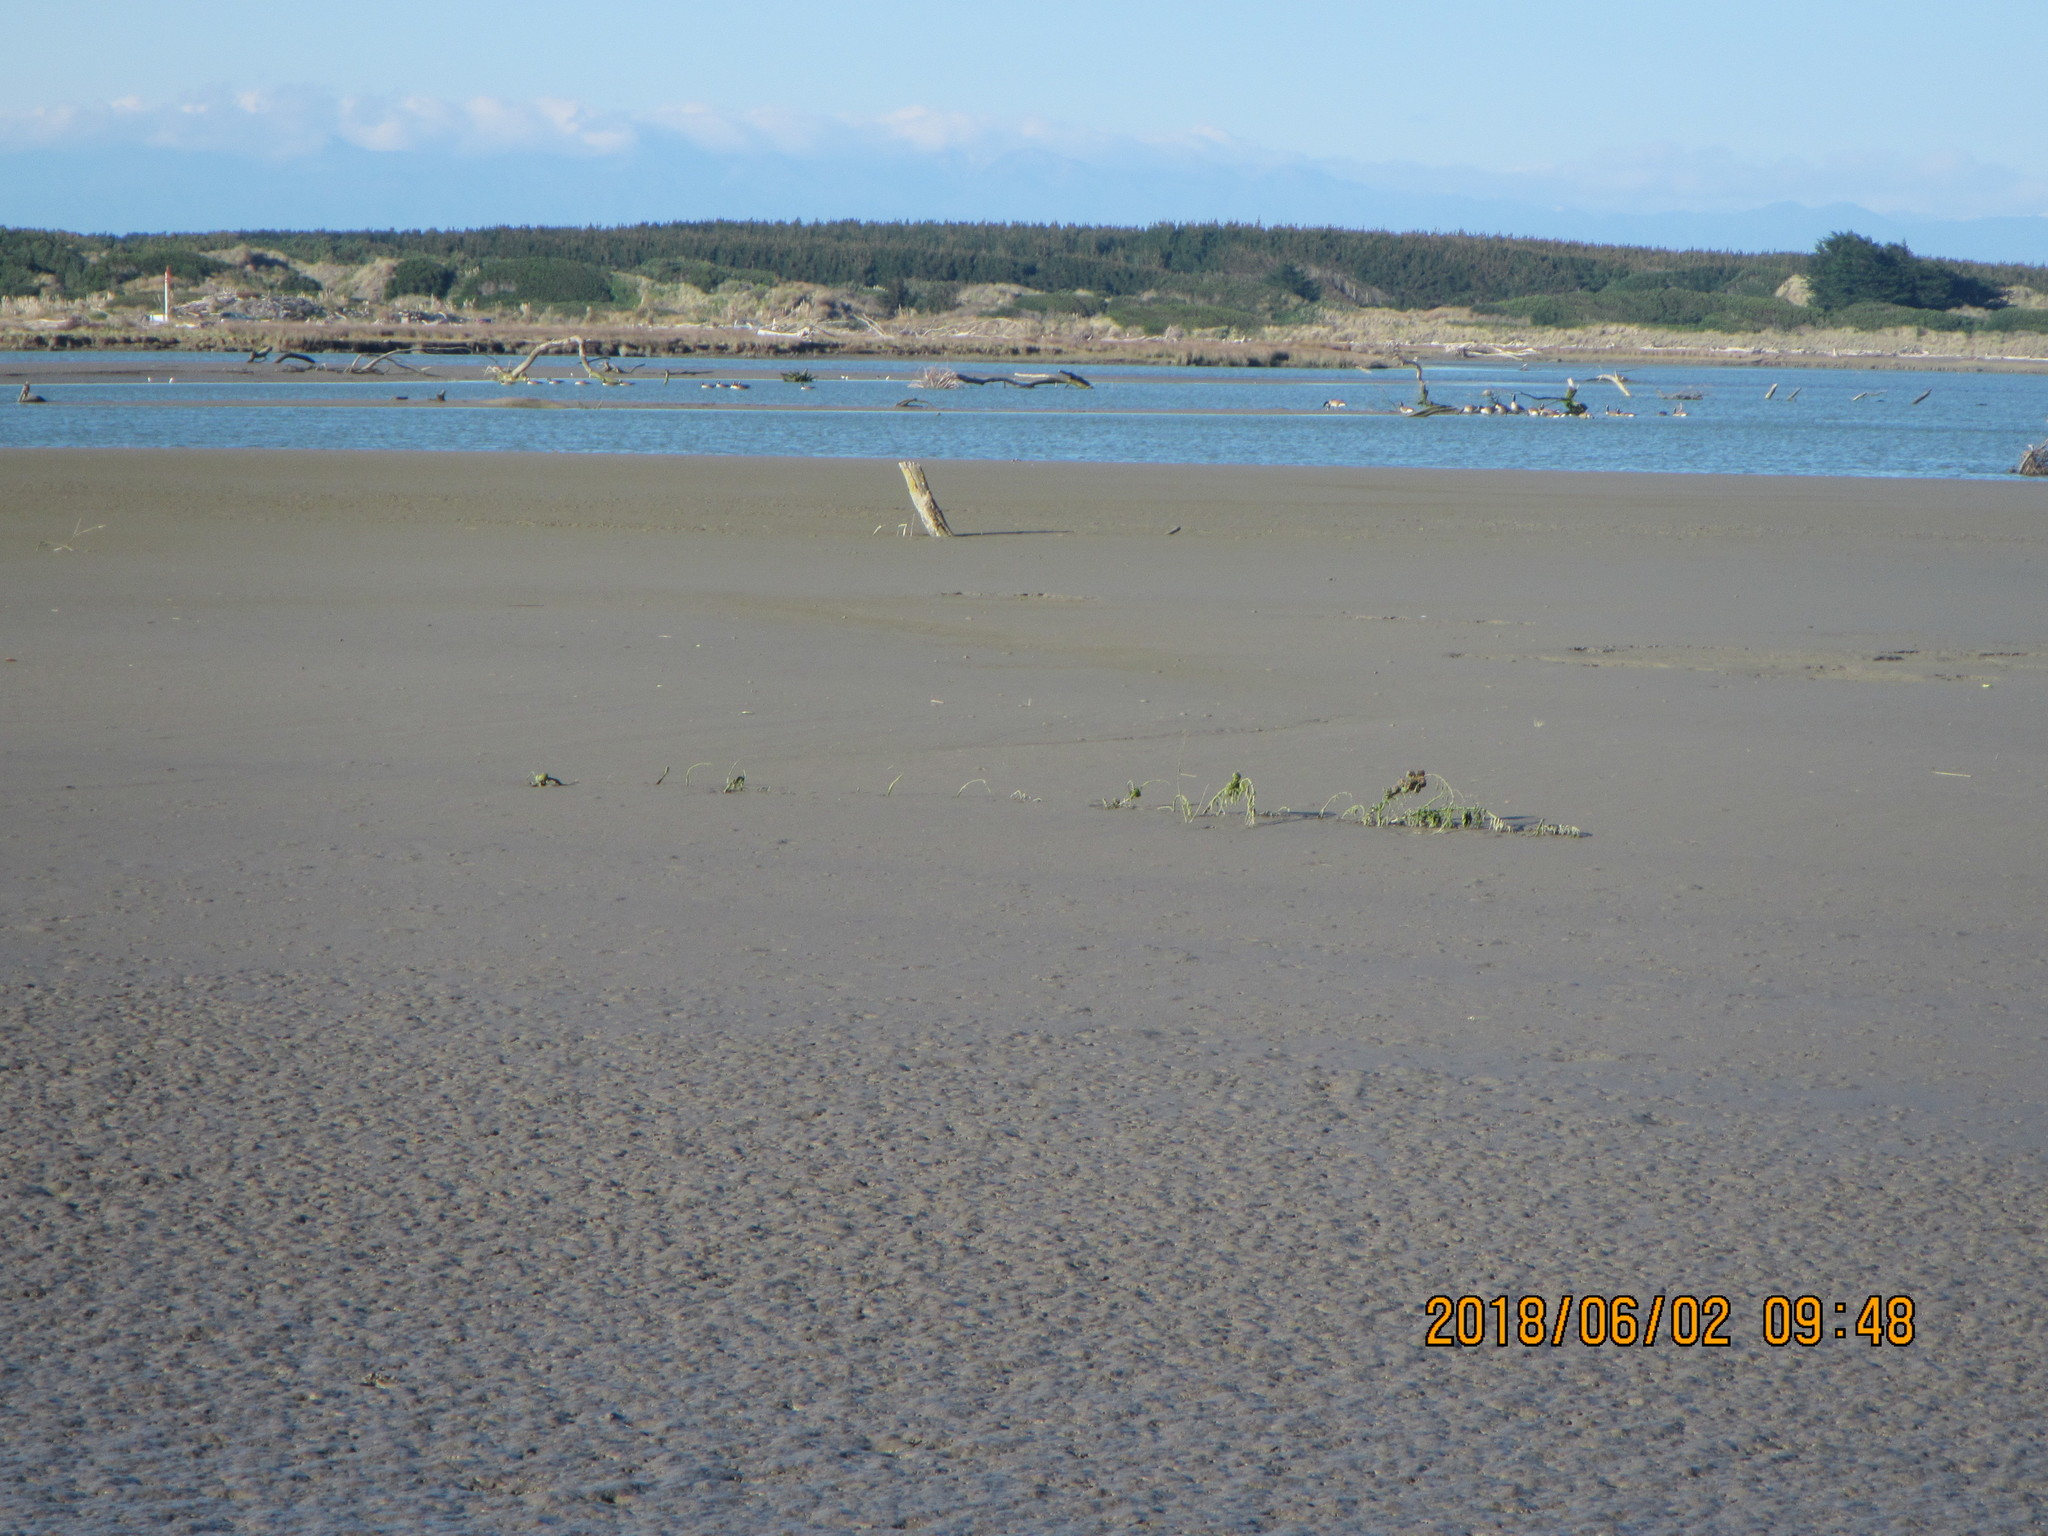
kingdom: Animalia
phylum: Chordata
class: Aves
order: Anseriformes
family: Anatidae
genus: Branta
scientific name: Branta canadensis
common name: Canada goose
